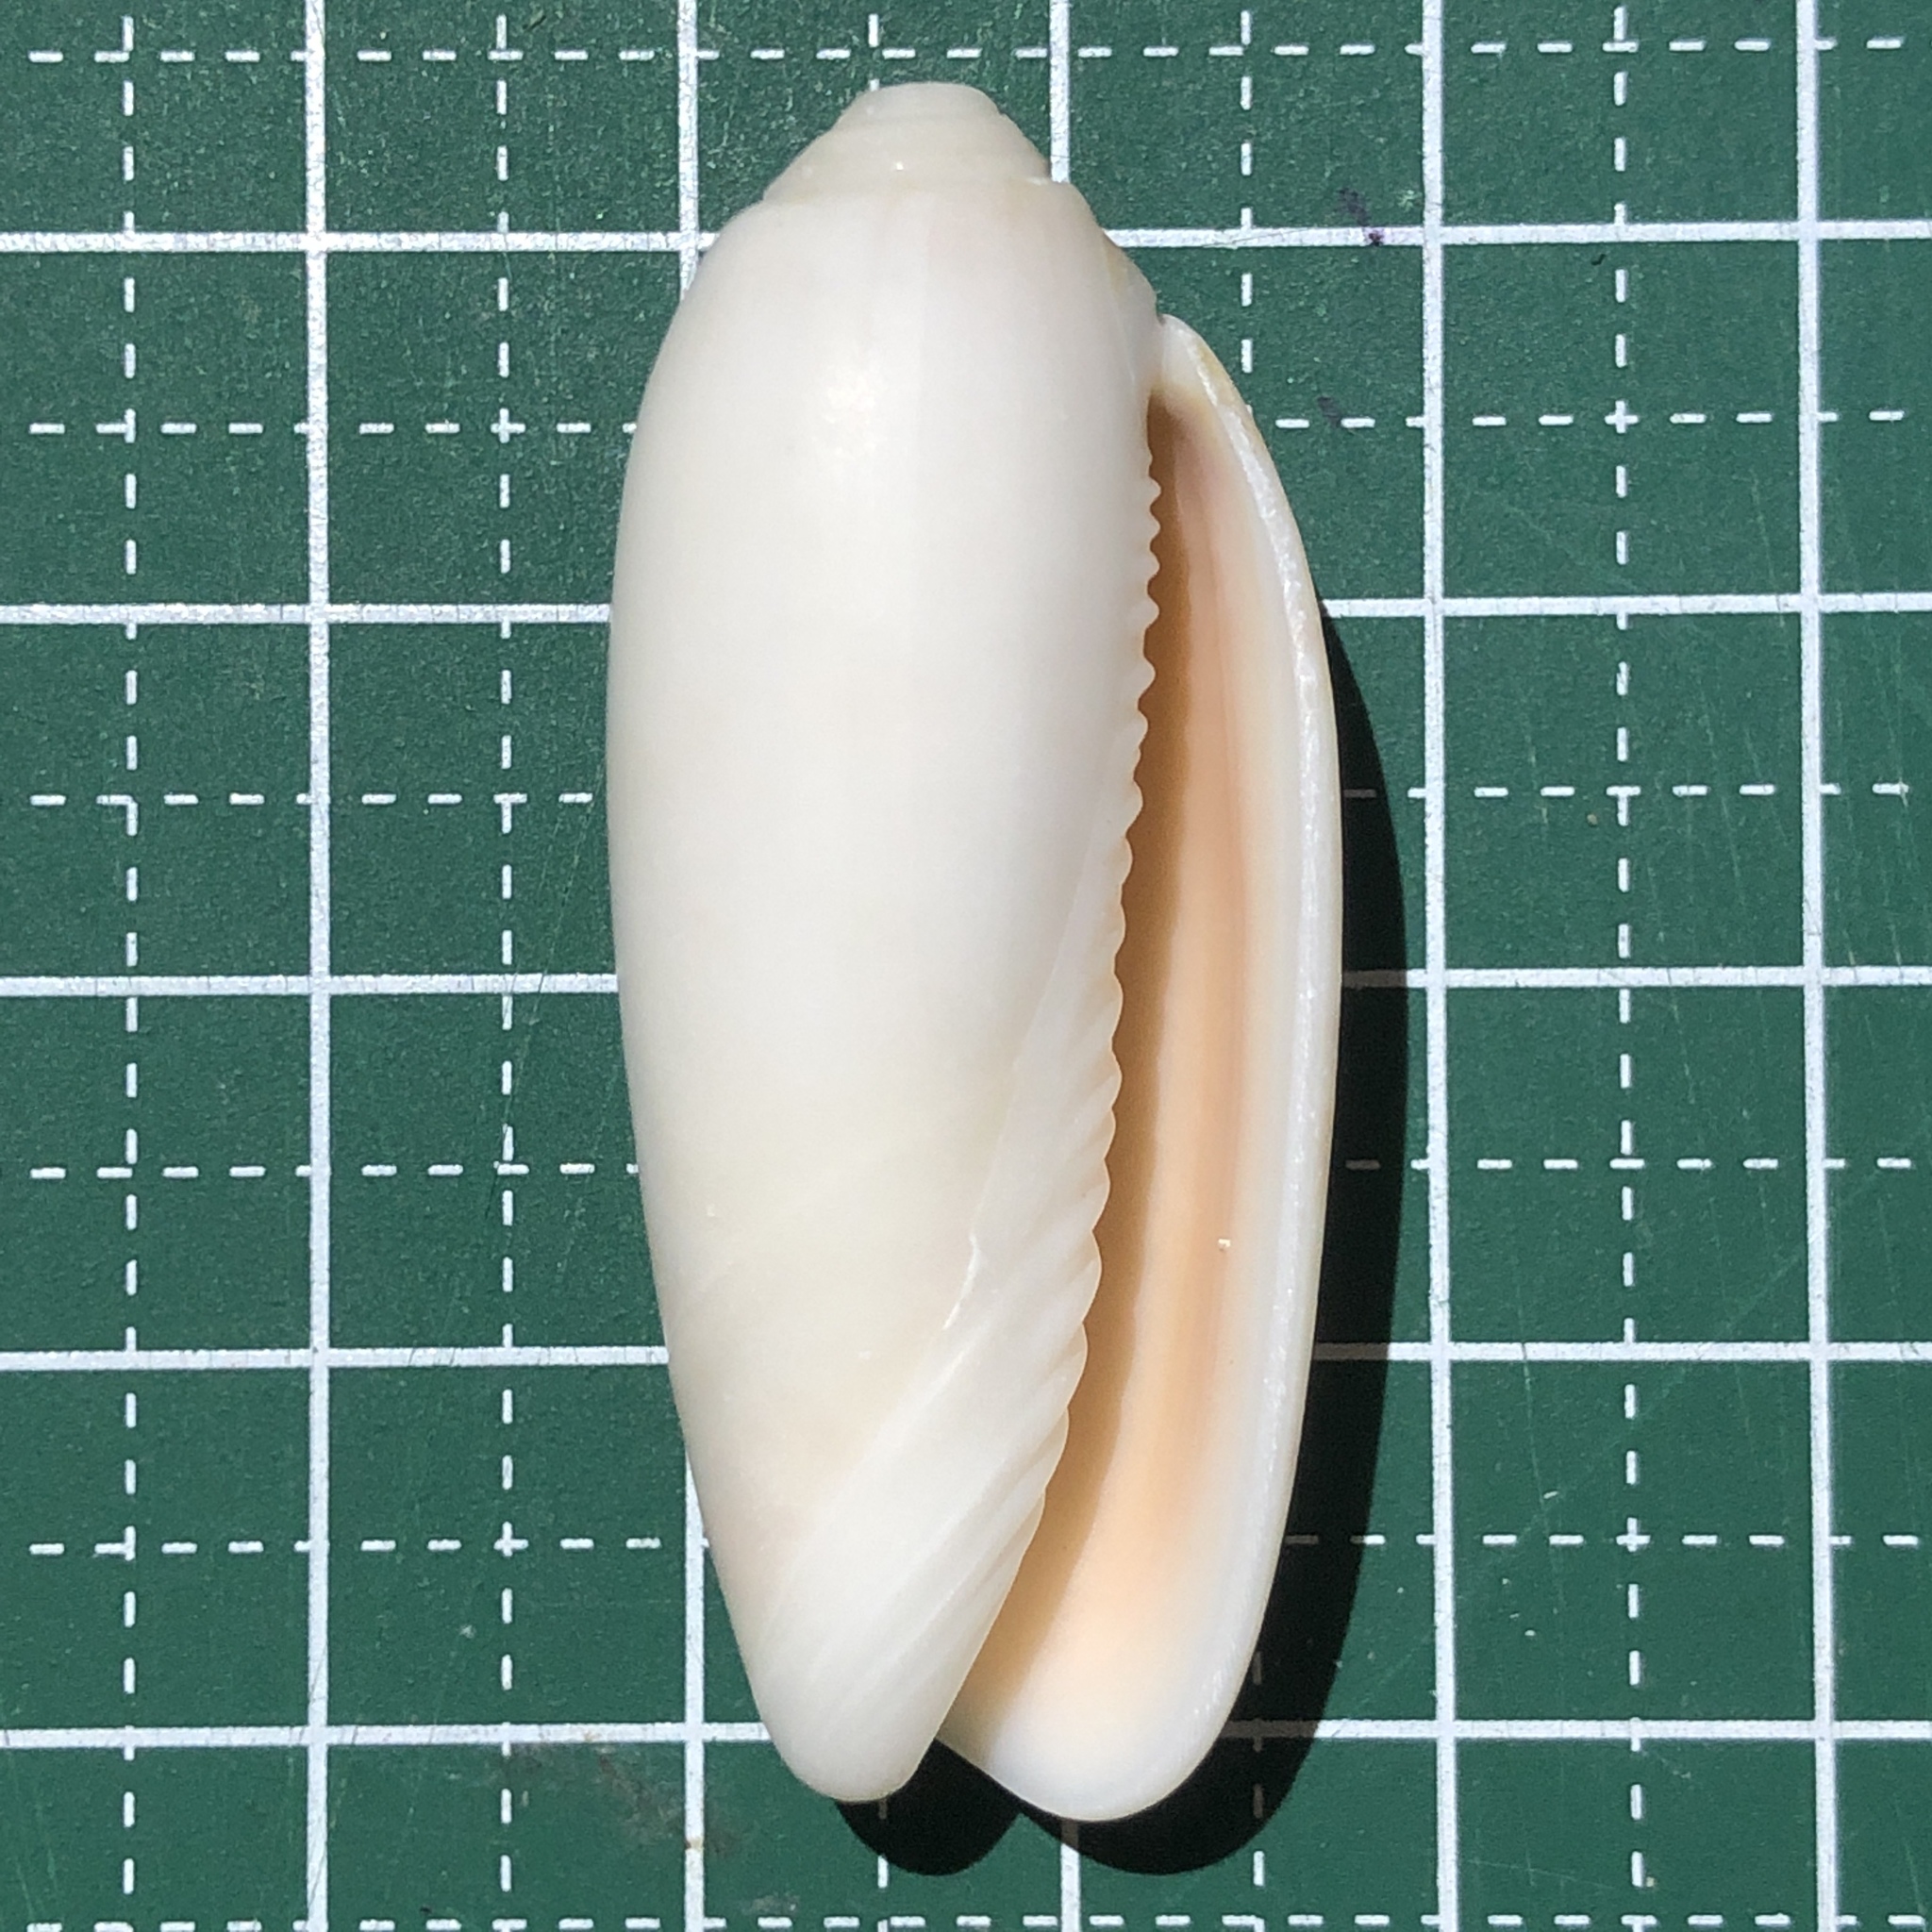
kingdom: Animalia
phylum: Mollusca
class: Gastropoda
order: Neogastropoda
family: Olividae
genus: Oliva
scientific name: Oliva miniacea
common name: Pacific common olive
